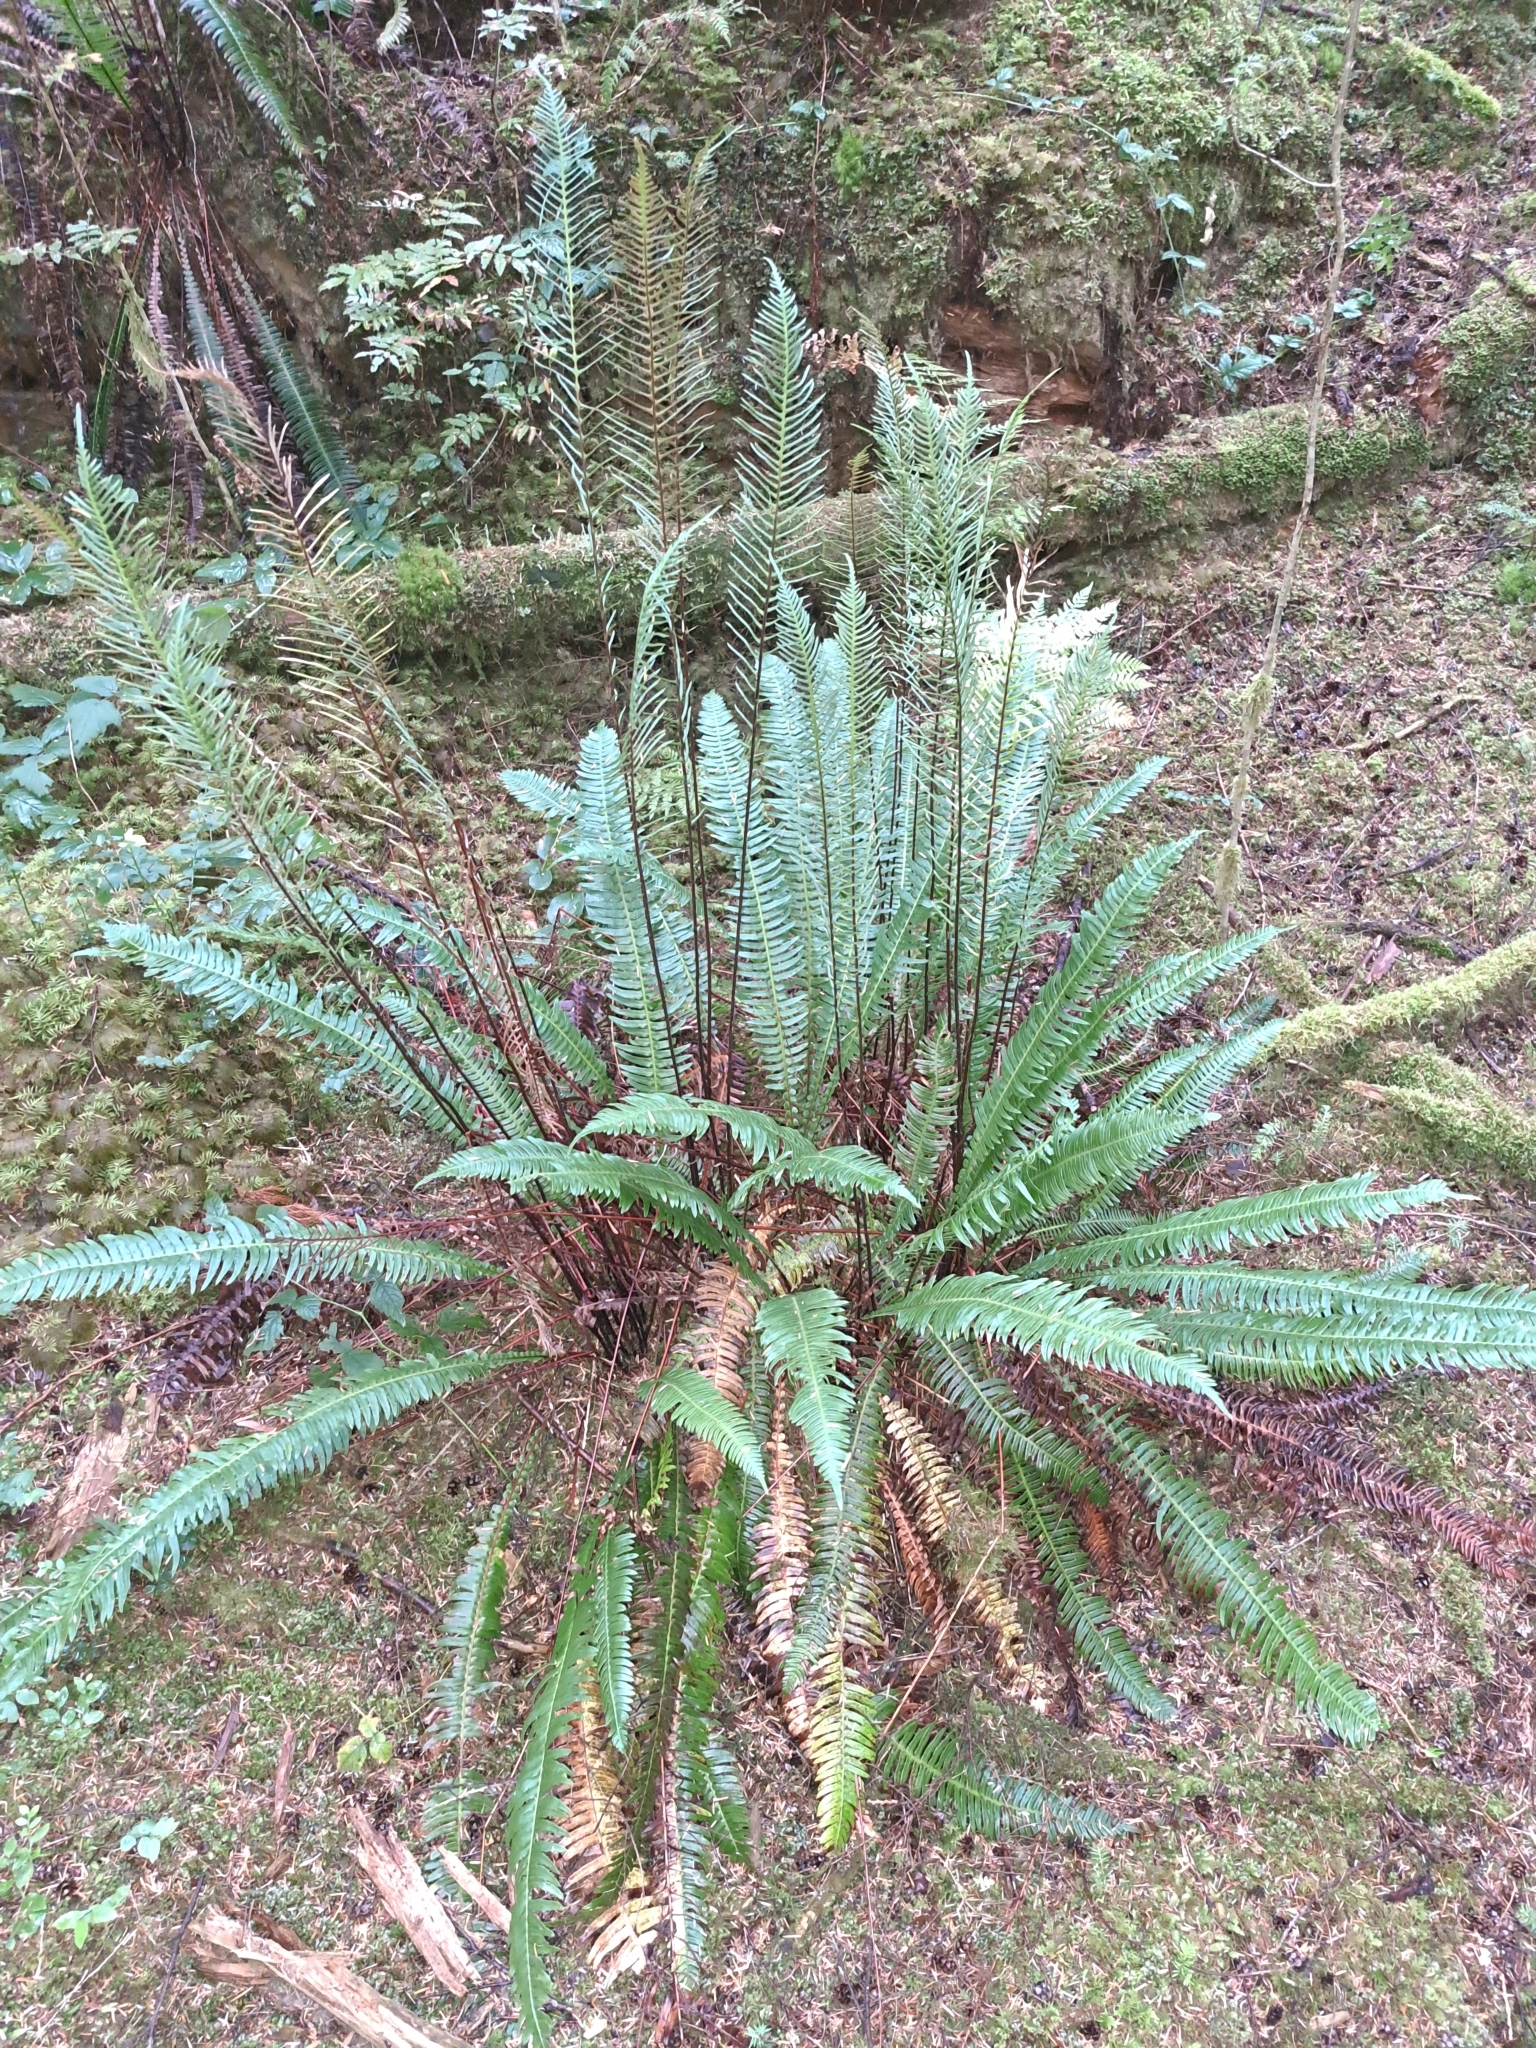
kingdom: Plantae
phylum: Tracheophyta
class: Polypodiopsida
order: Polypodiales
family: Blechnaceae
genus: Struthiopteris
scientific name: Struthiopteris spicant
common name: Deer fern
